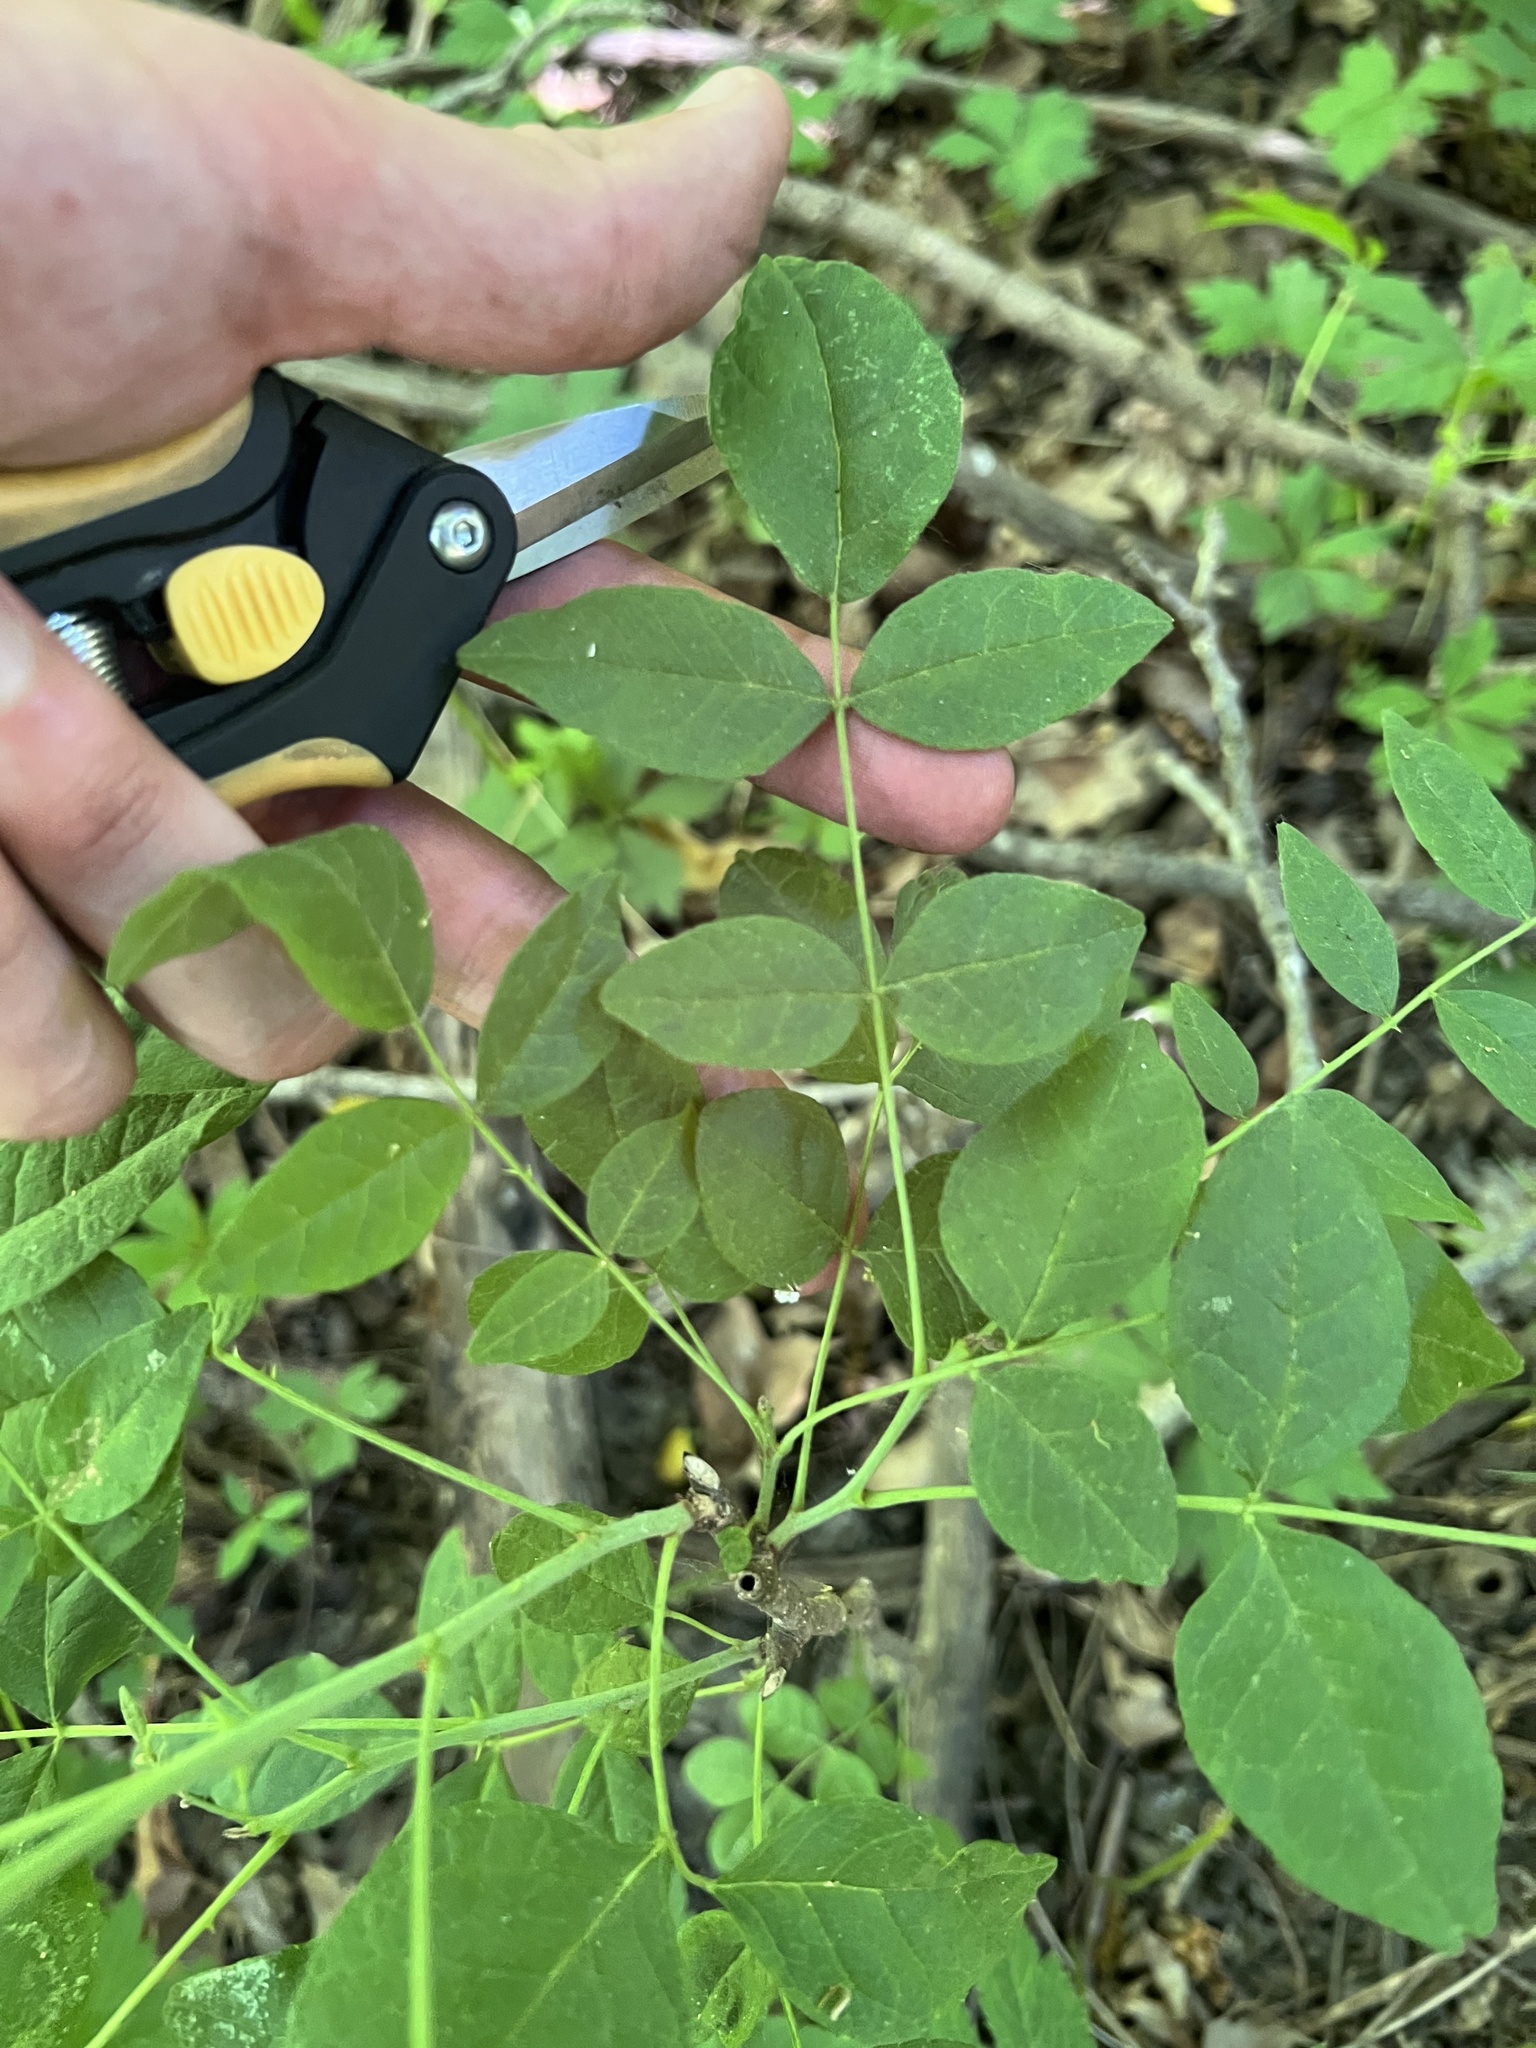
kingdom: Plantae
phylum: Tracheophyta
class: Magnoliopsida
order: Sapindales
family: Rutaceae
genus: Zanthoxylum
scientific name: Zanthoxylum americanum
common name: Northern prickly-ash
